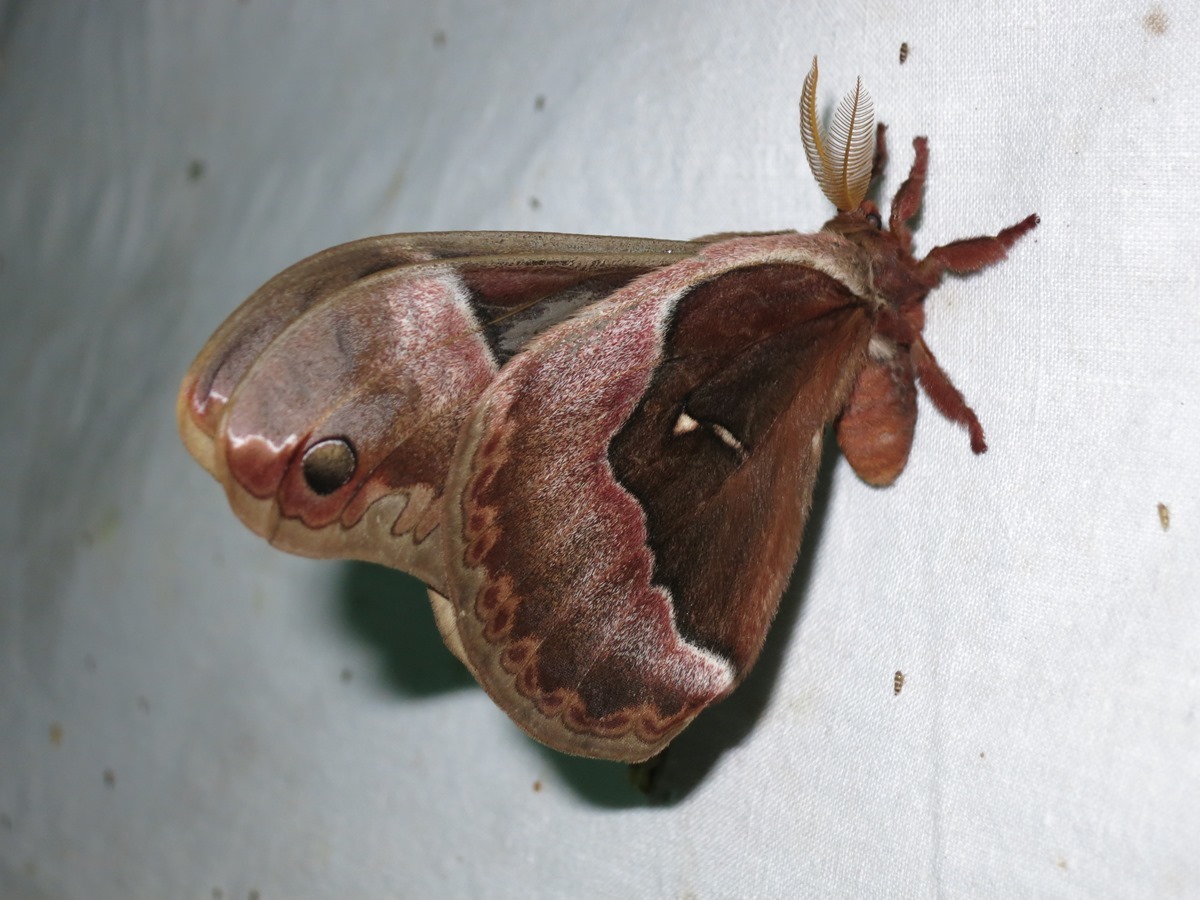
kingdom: Animalia
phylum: Arthropoda
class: Insecta
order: Lepidoptera
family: Saturniidae
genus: Callosamia
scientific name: Callosamia angulifera
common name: Tulip tree silkmoth
